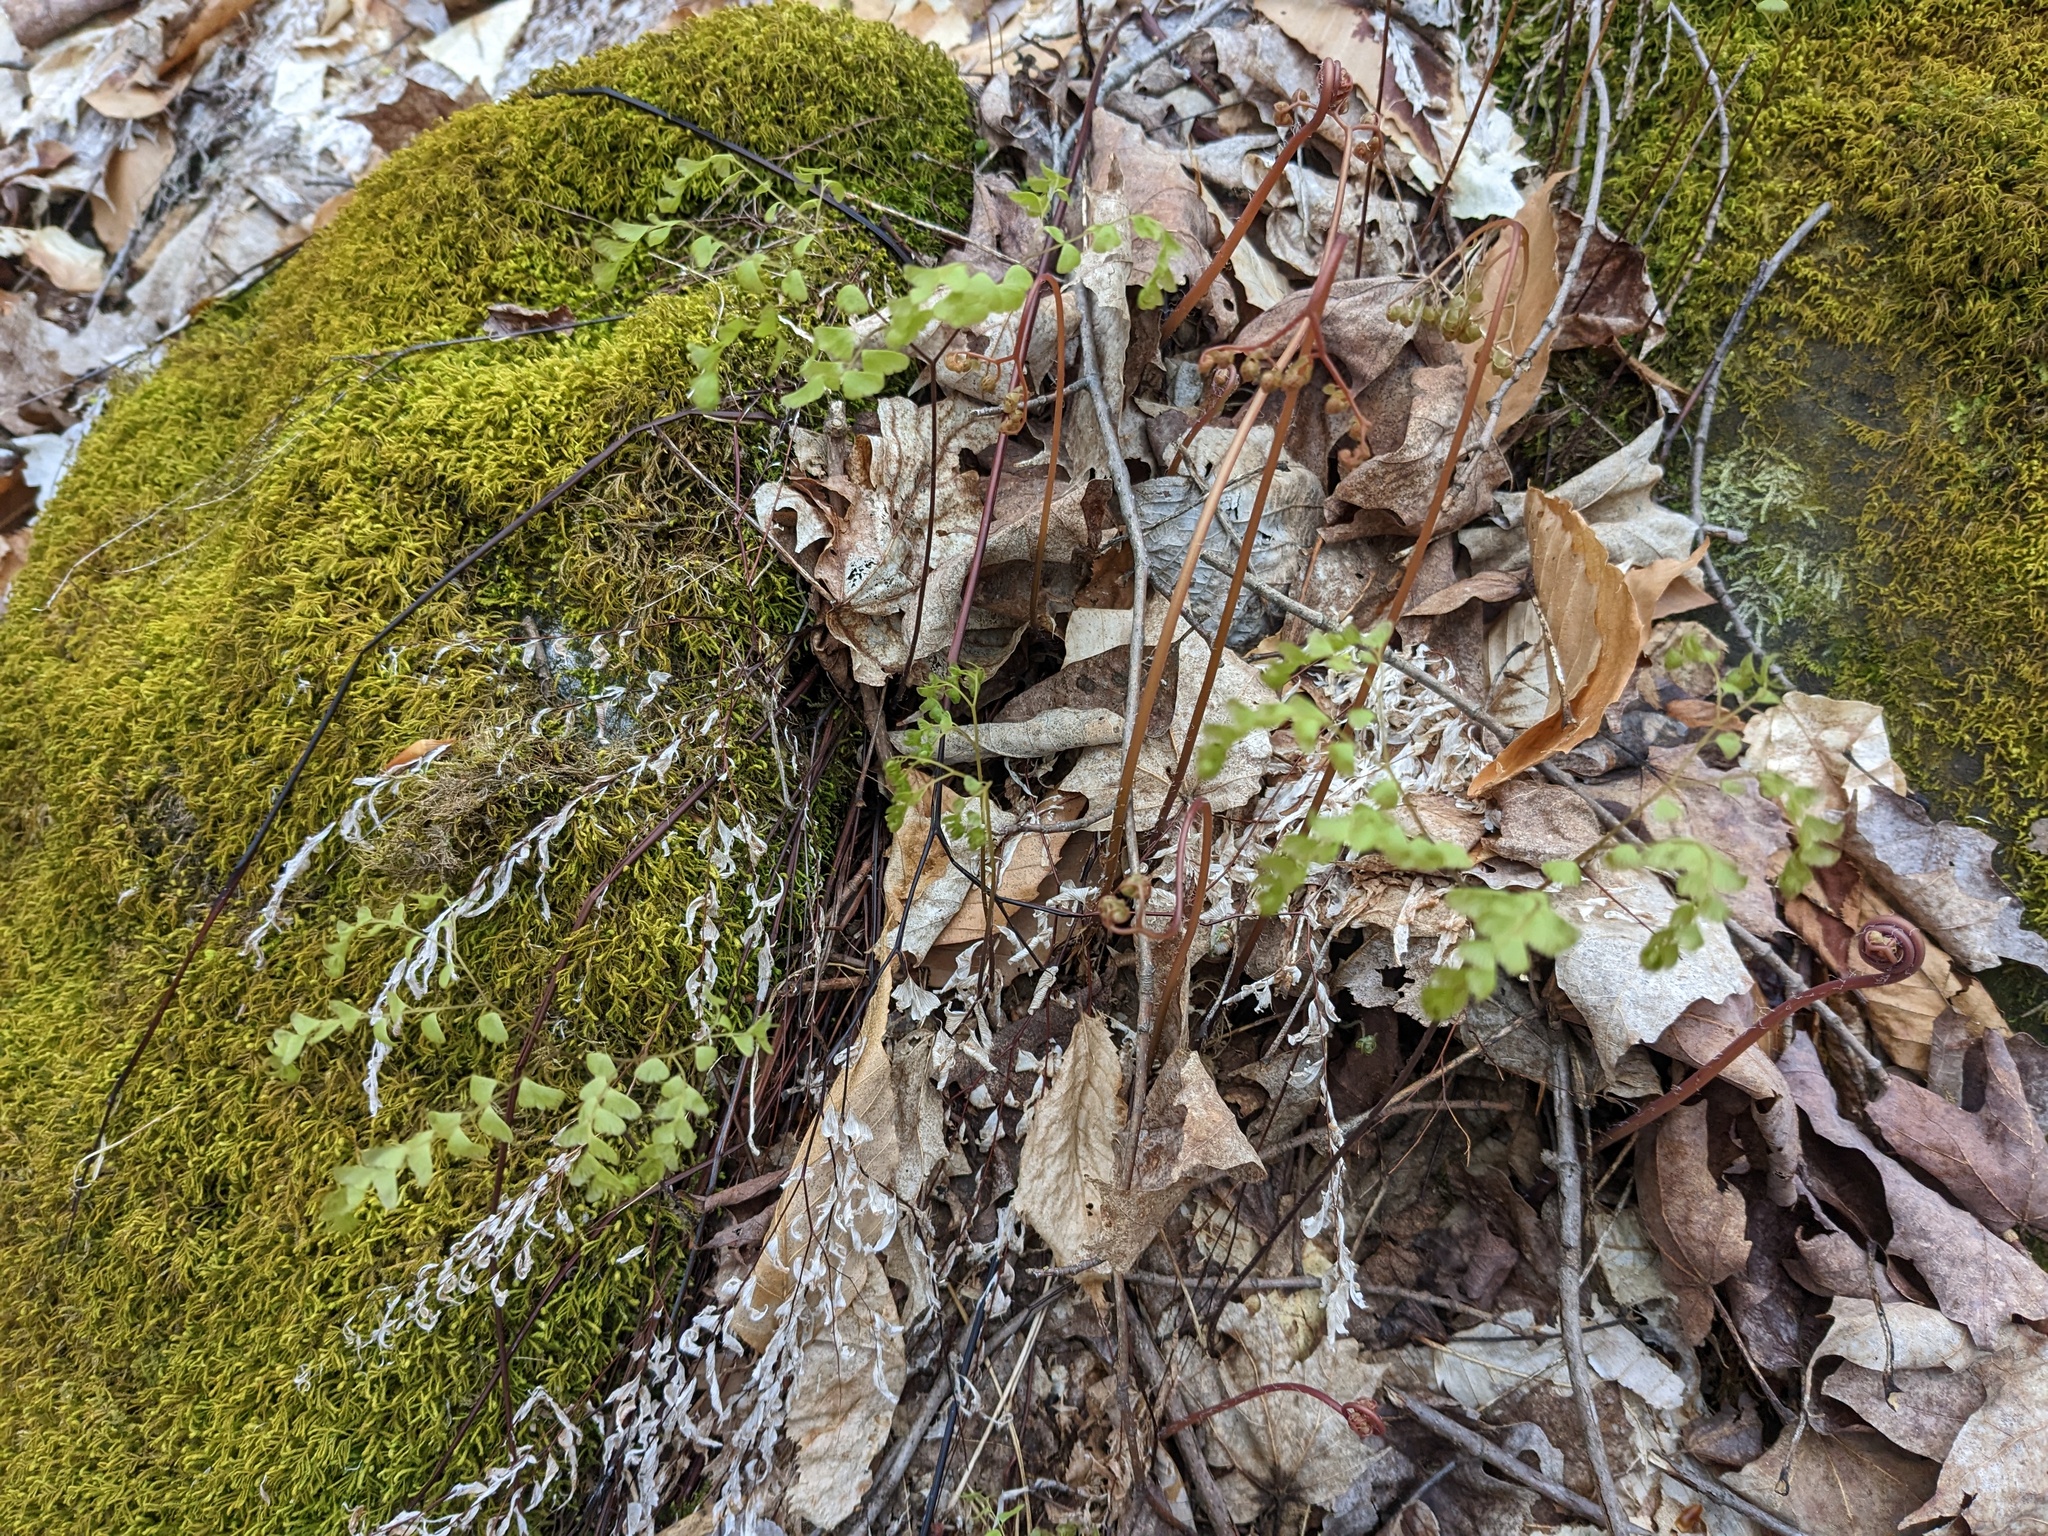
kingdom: Plantae
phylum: Tracheophyta
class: Polypodiopsida
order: Polypodiales
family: Pteridaceae
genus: Adiantum
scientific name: Adiantum pedatum
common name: Five-finger fern
